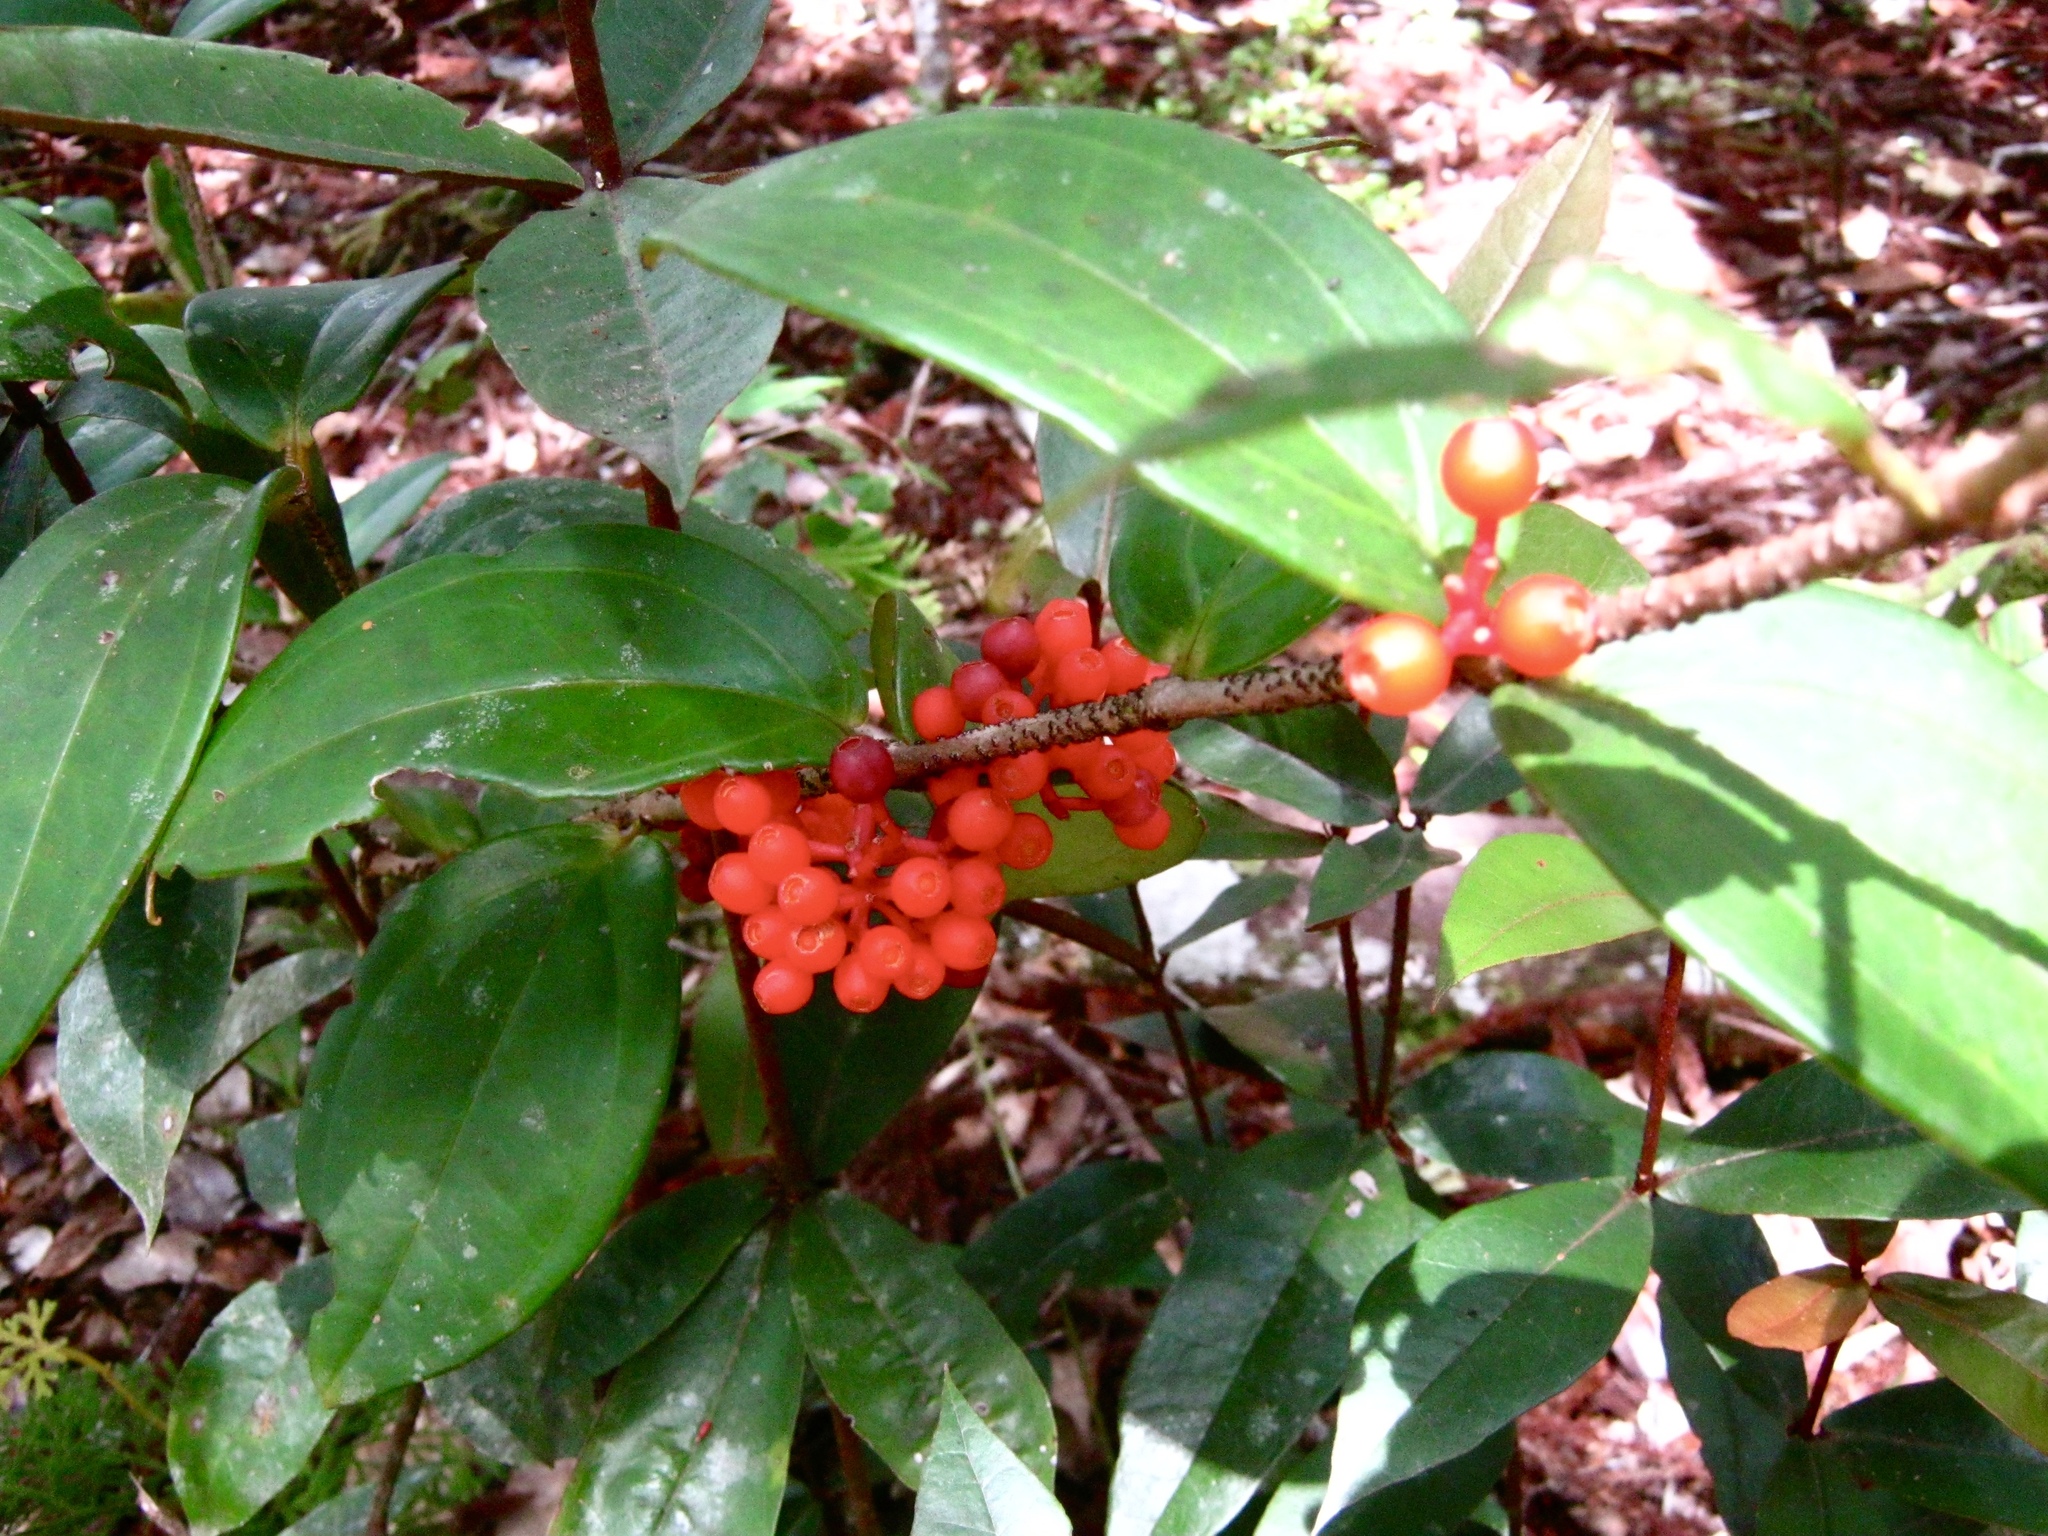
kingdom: Plantae
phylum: Tracheophyta
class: Magnoliopsida
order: Myrtales
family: Melastomataceae
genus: Medinilla
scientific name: Medinilla crassifolia
